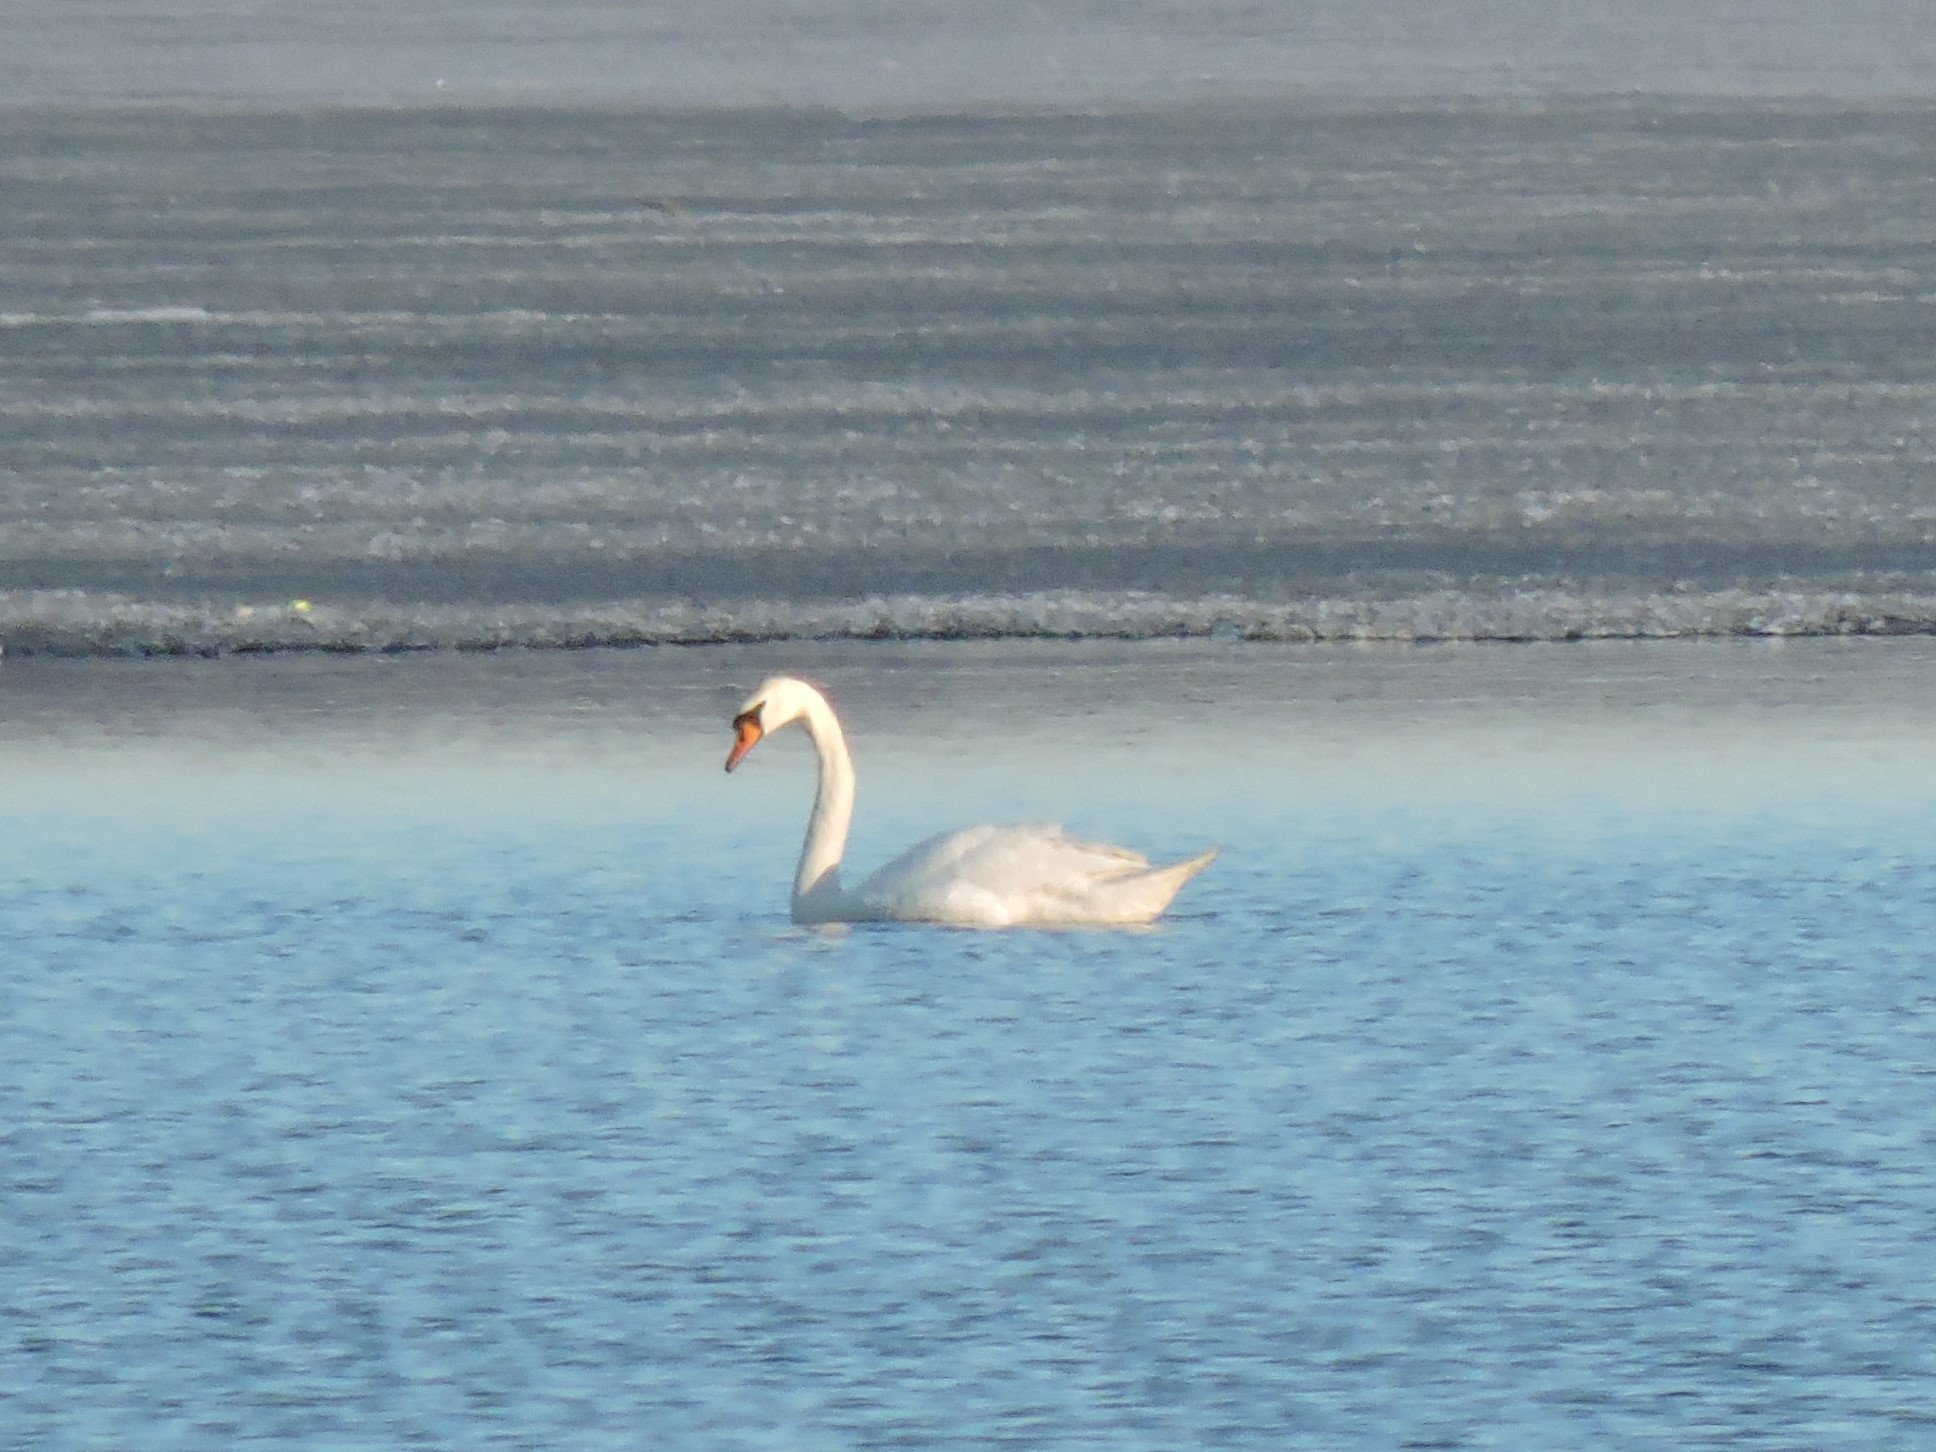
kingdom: Animalia
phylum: Chordata
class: Aves
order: Anseriformes
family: Anatidae
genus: Cygnus
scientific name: Cygnus olor
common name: Mute swan
